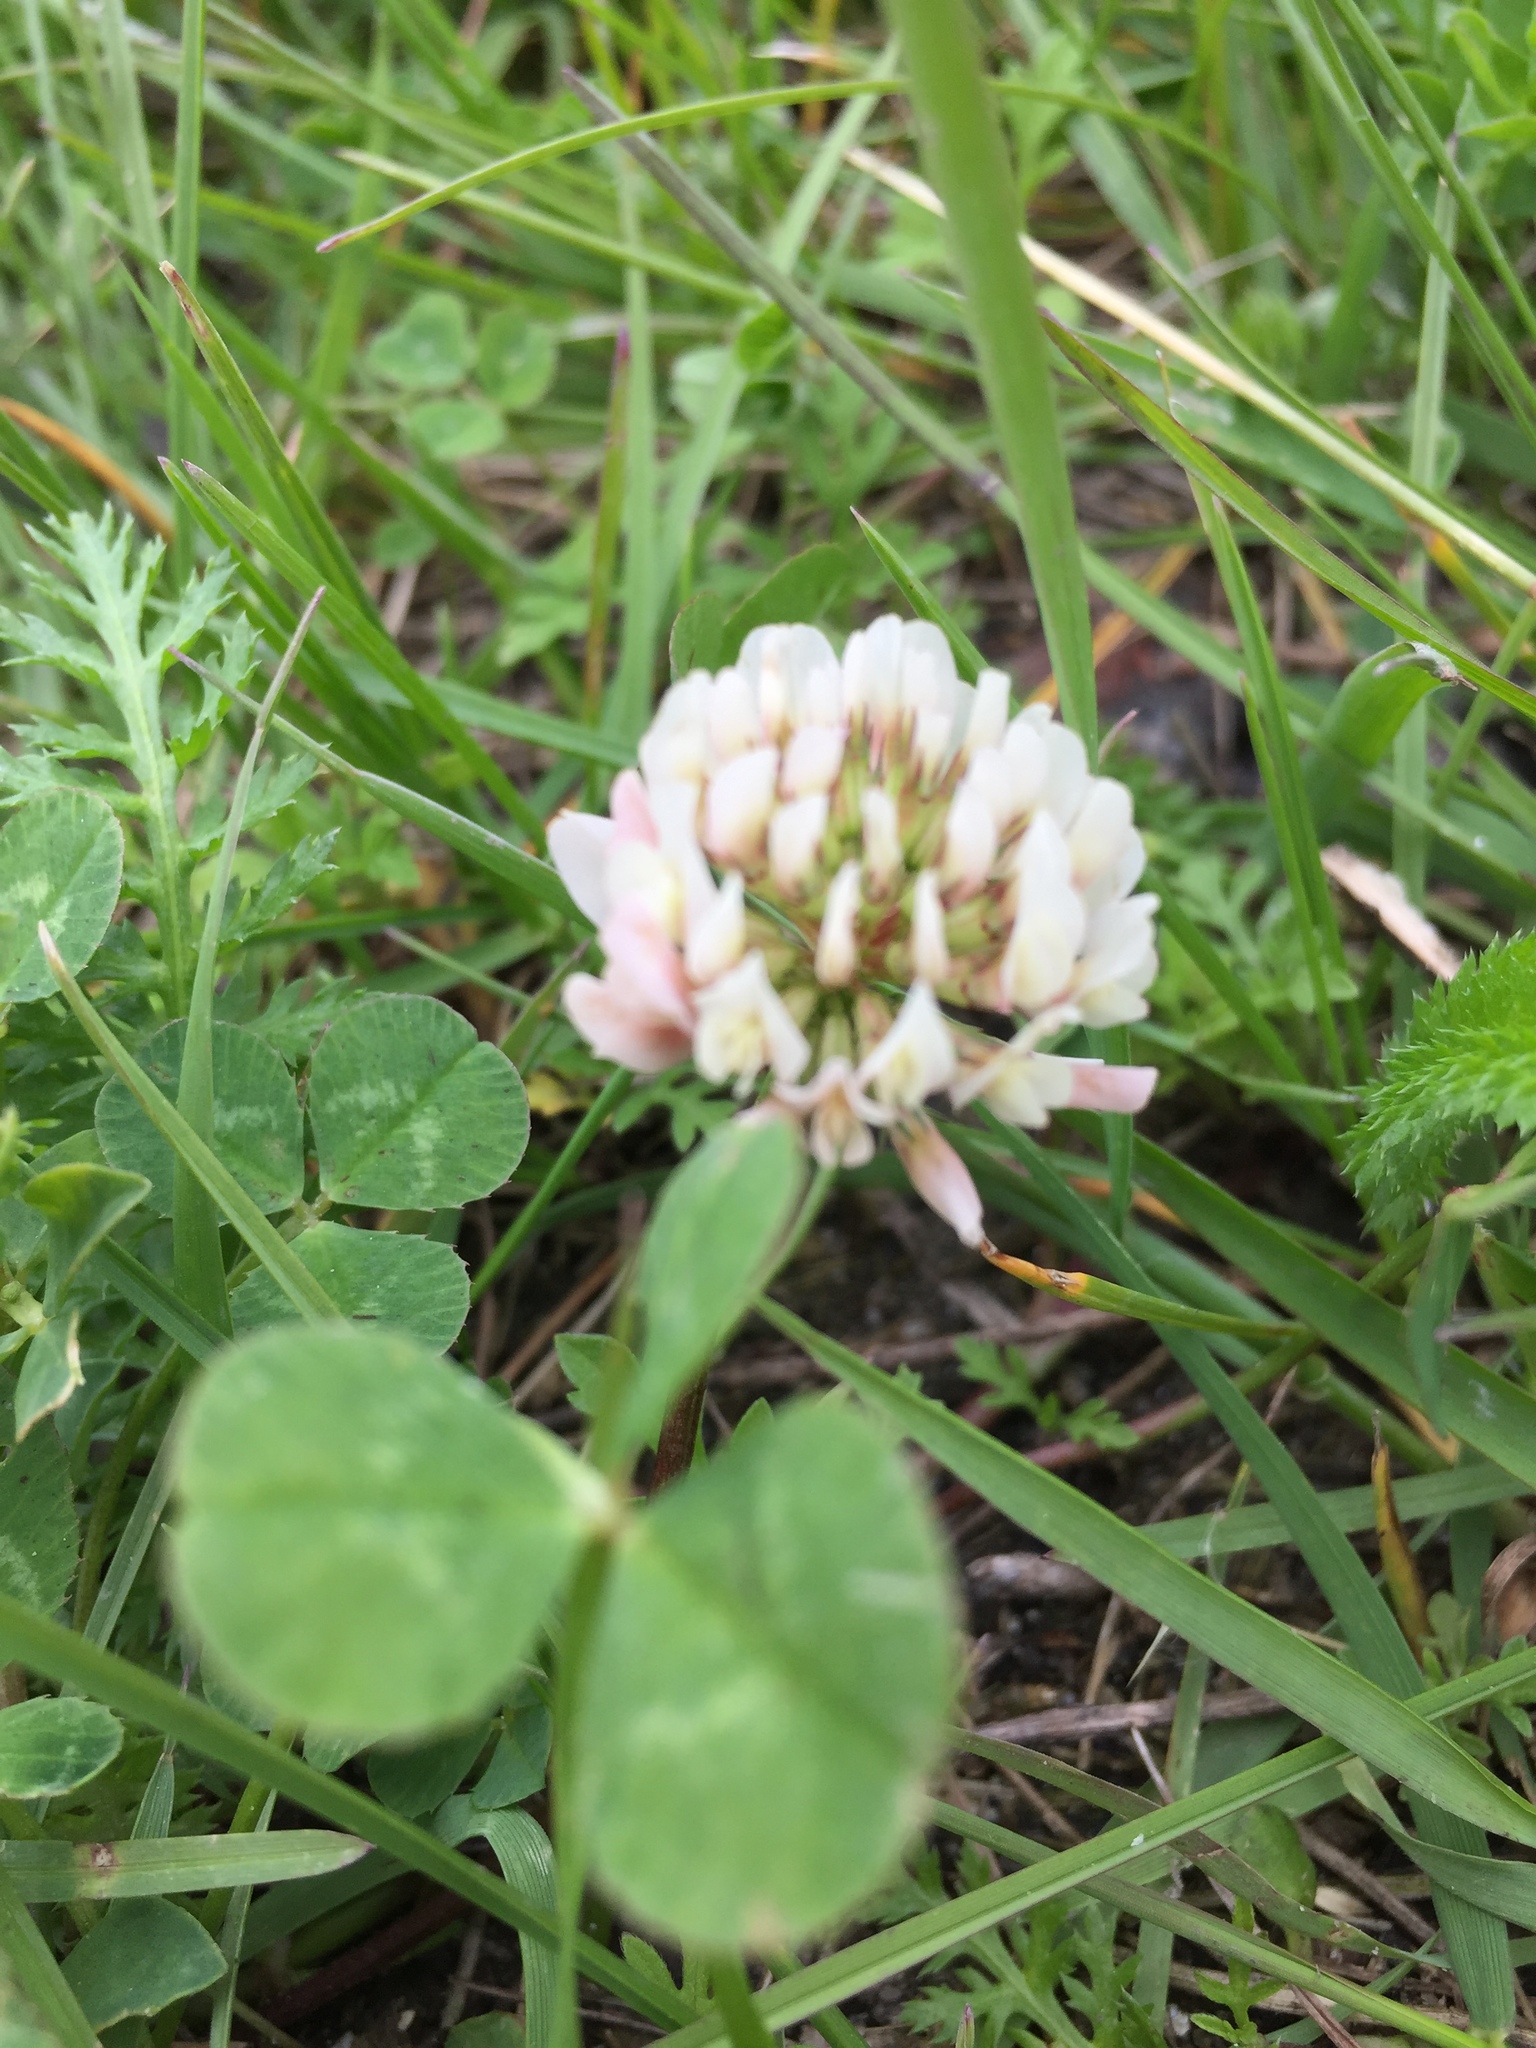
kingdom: Plantae
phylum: Tracheophyta
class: Magnoliopsida
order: Fabales
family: Fabaceae
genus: Trifolium
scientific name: Trifolium repens
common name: White clover
